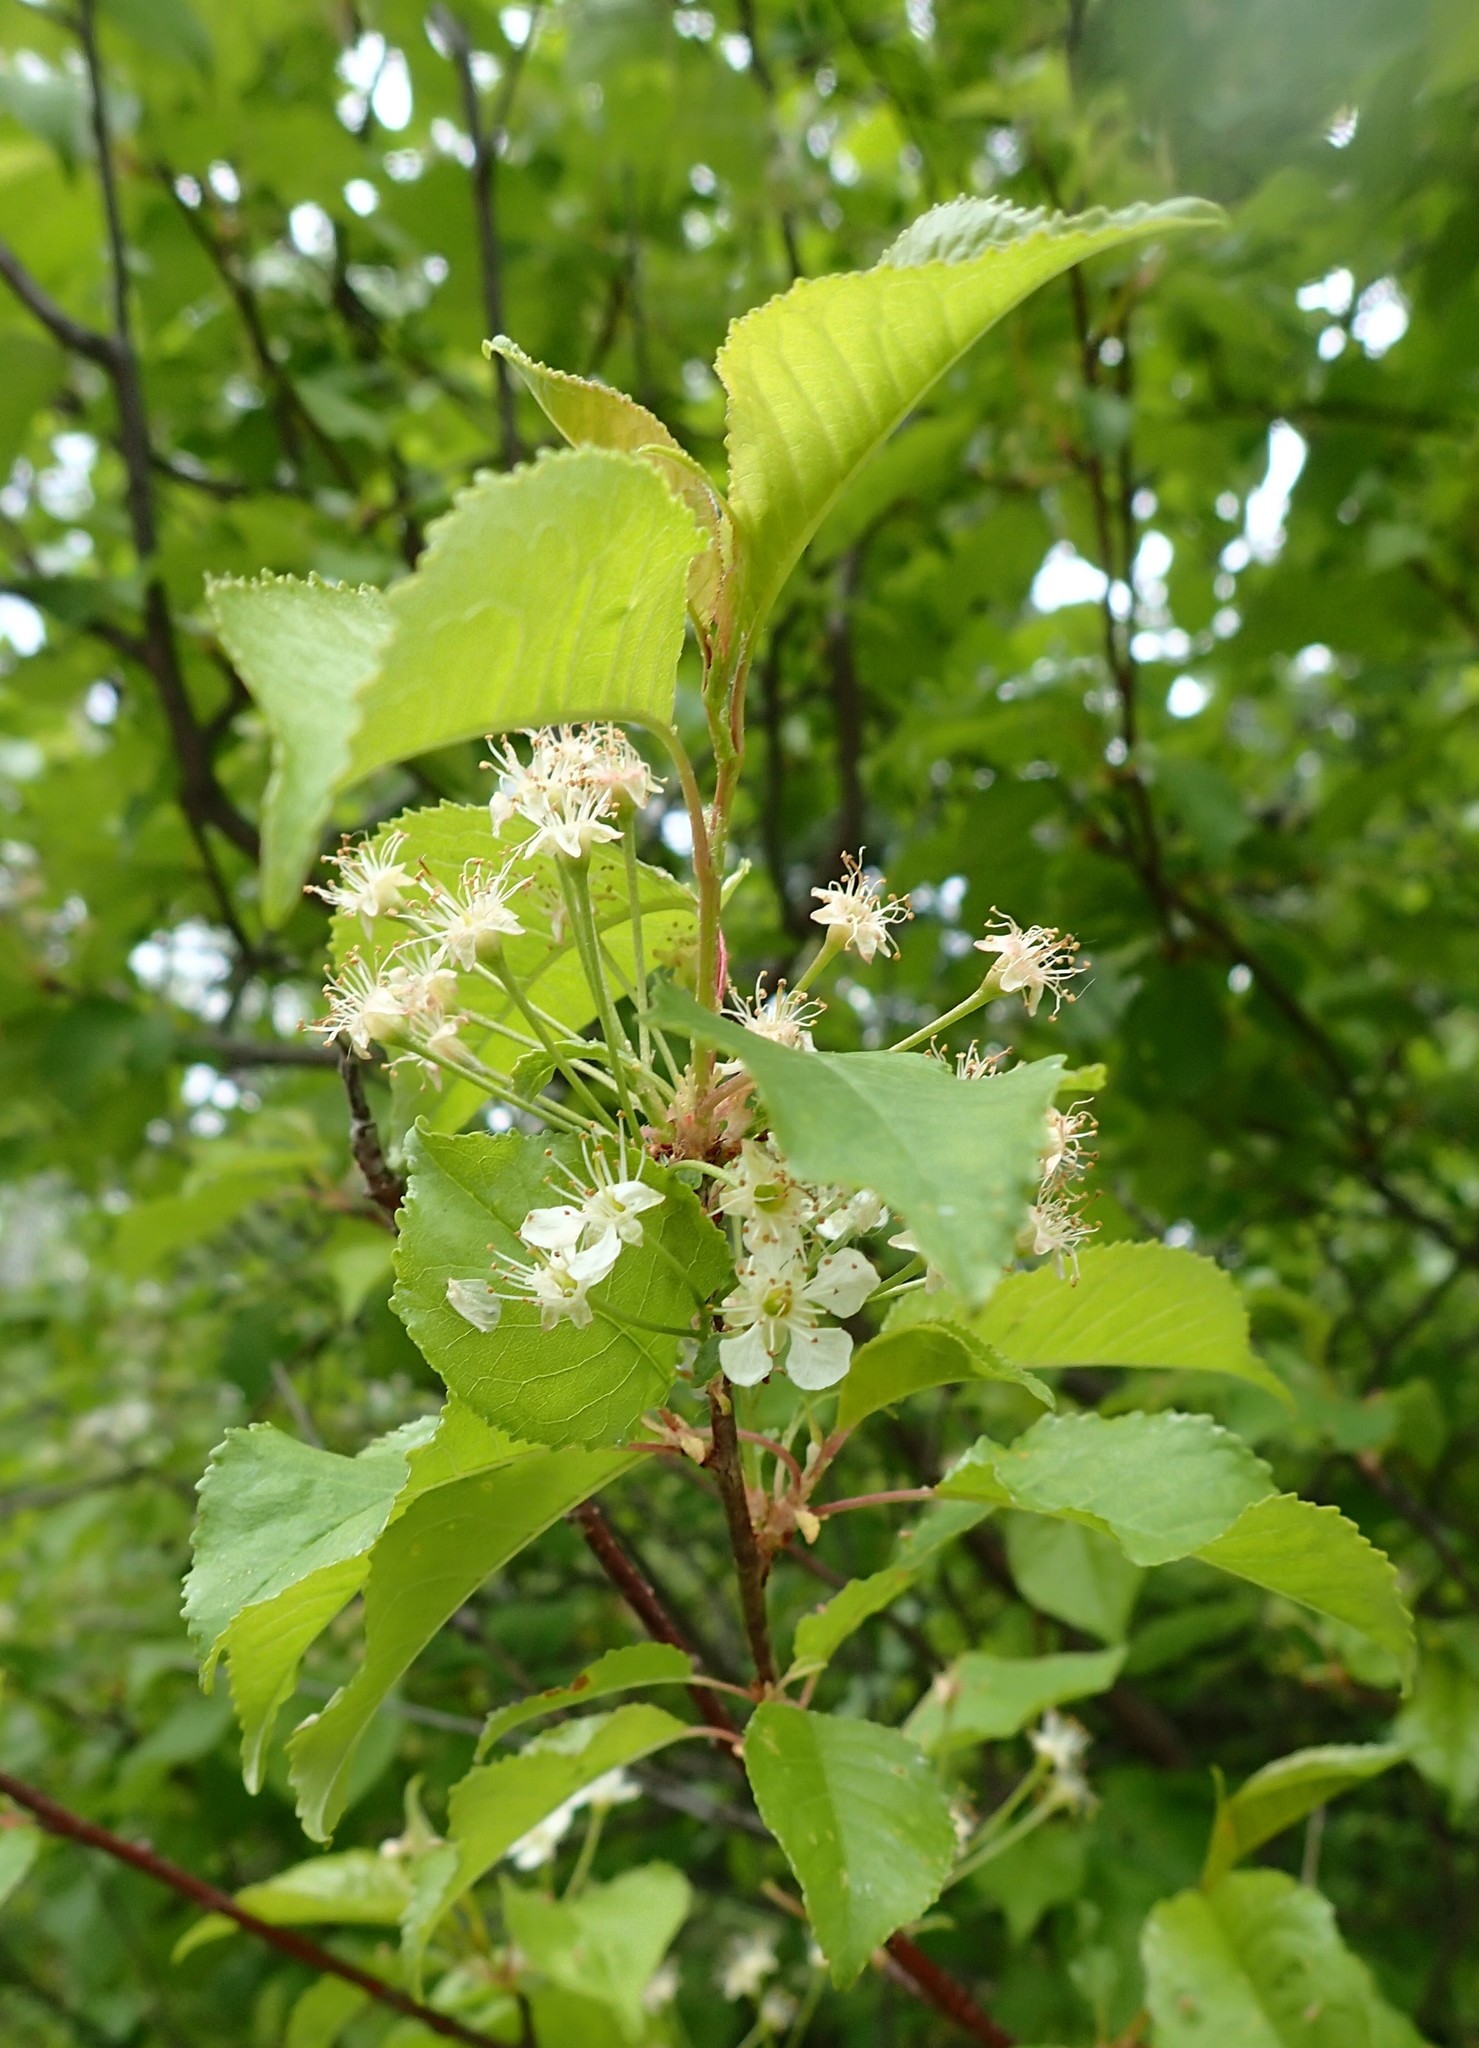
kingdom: Plantae
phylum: Tracheophyta
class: Magnoliopsida
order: Rosales
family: Rosaceae
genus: Prunus
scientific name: Prunus pensylvanica
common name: Pin cherry
